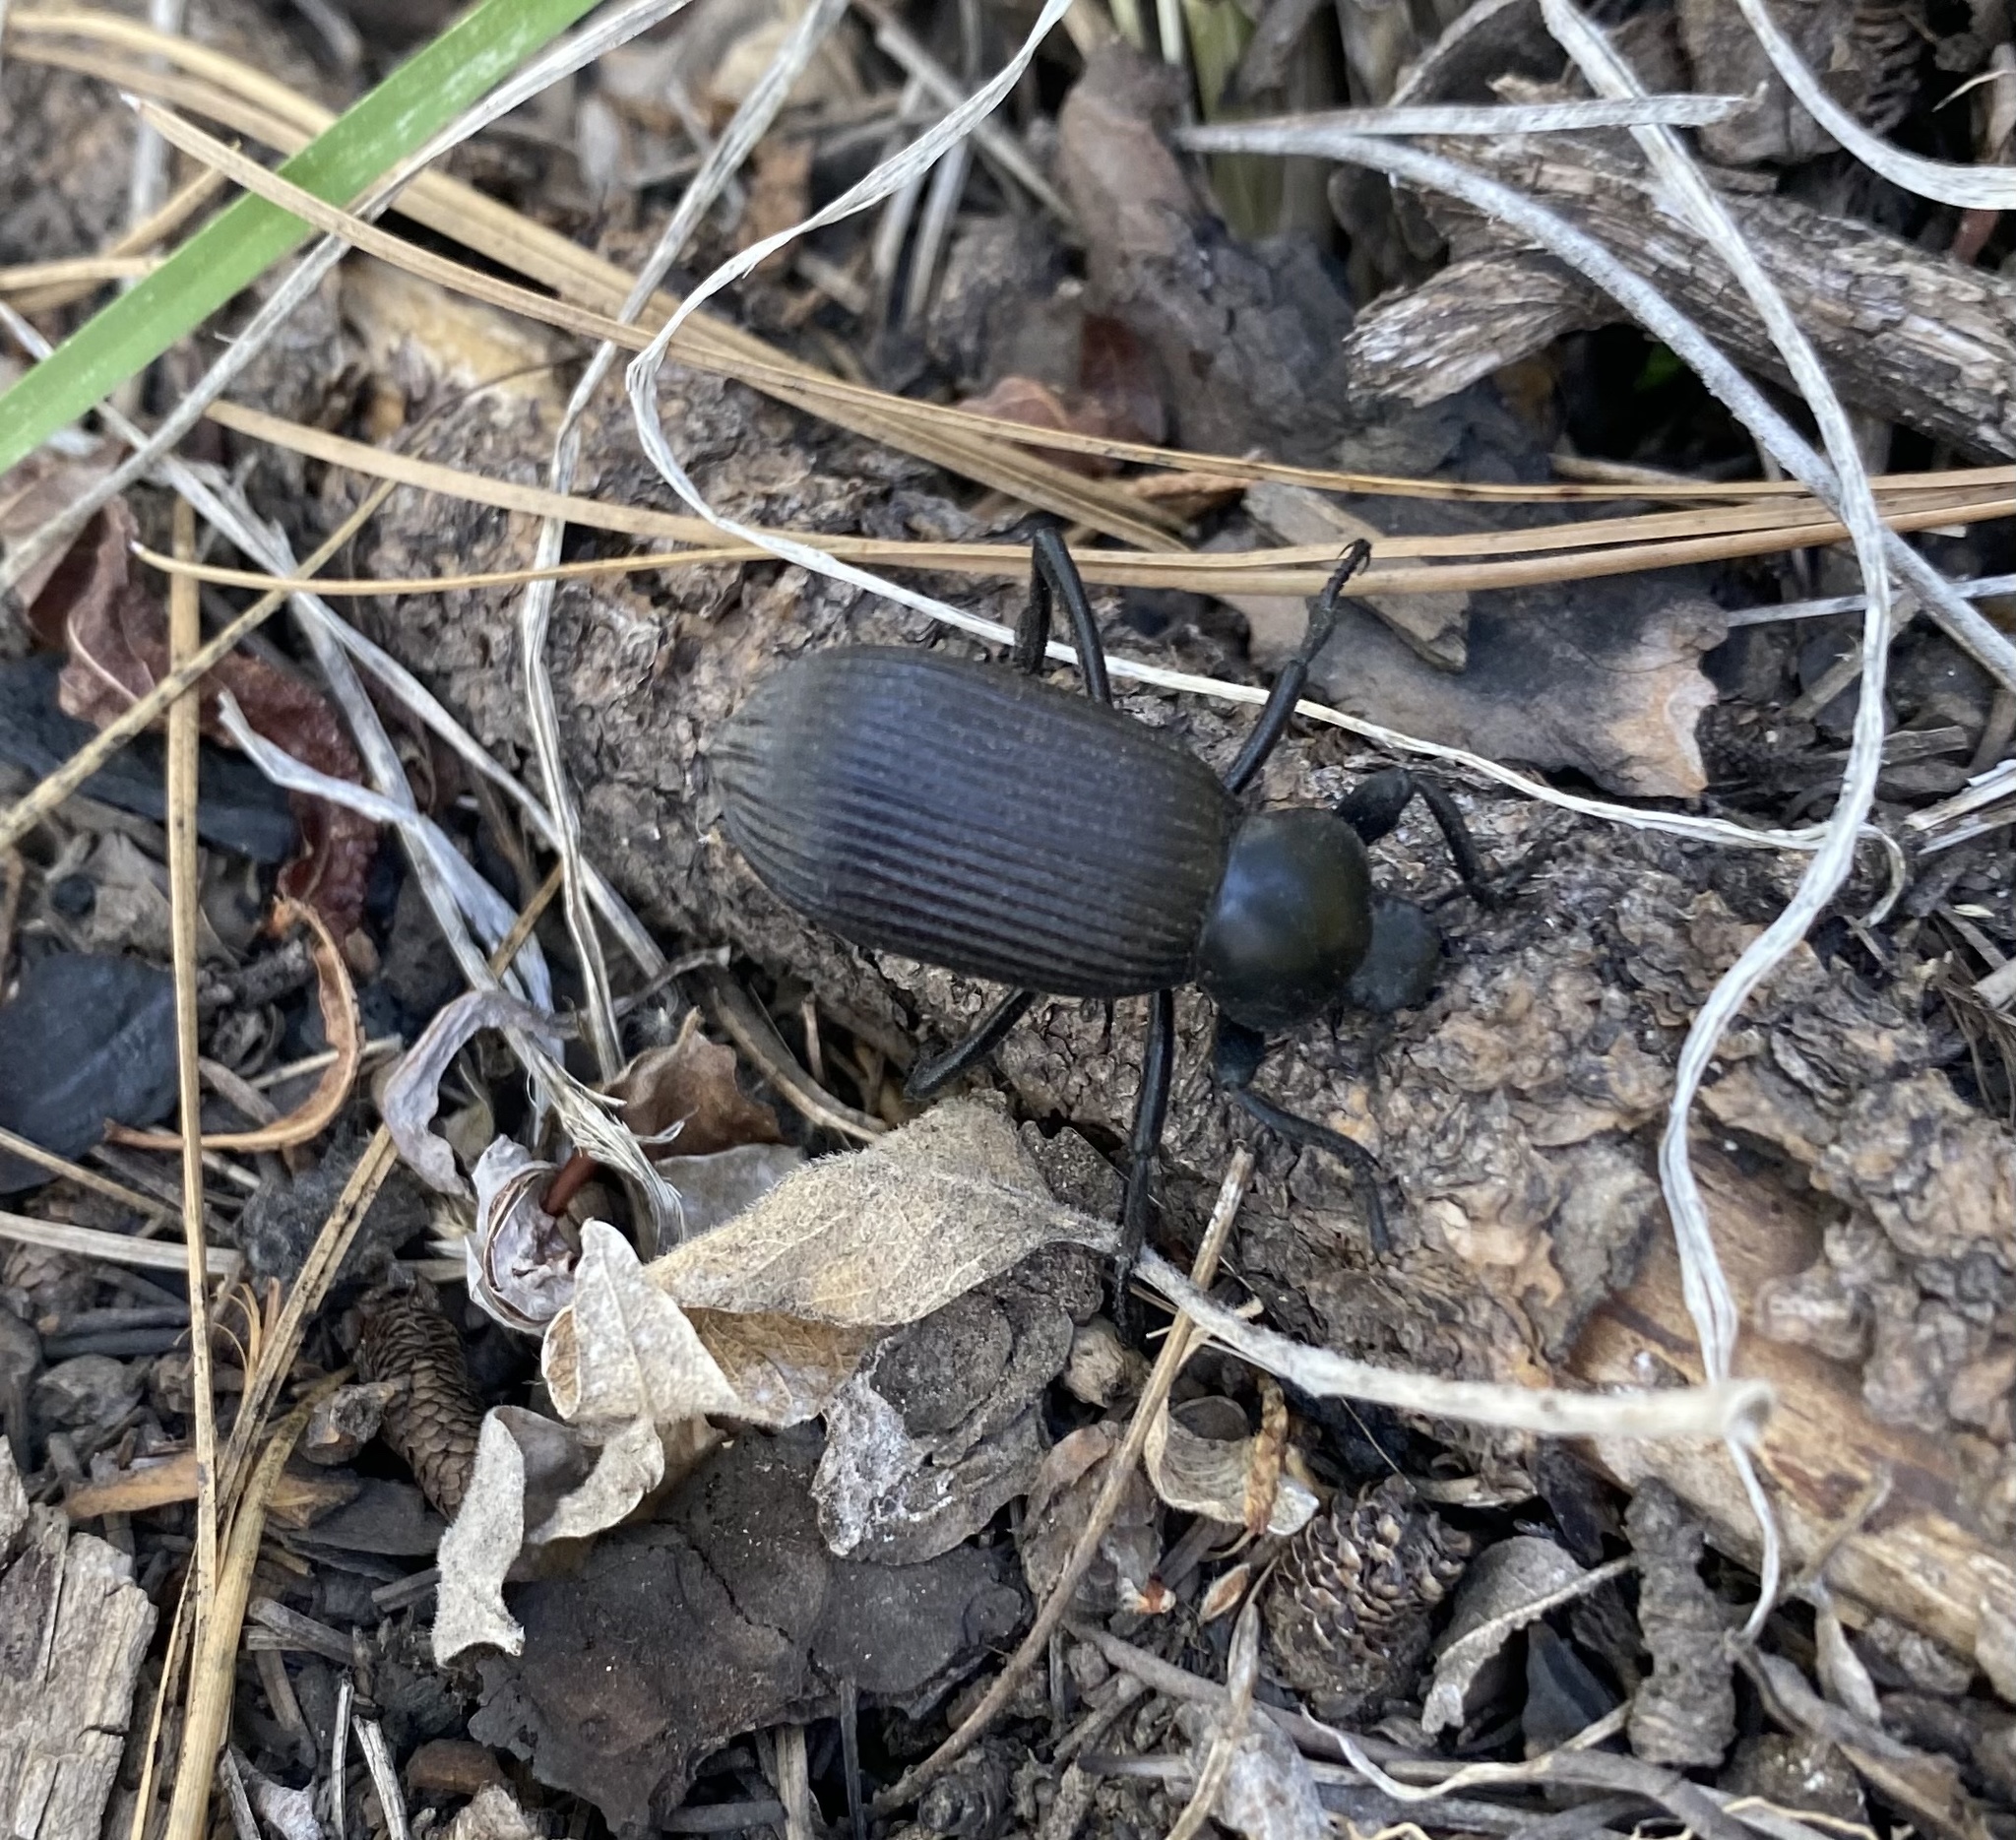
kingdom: Animalia
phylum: Arthropoda
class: Insecta
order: Coleoptera
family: Tenebrionidae
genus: Eleodes
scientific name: Eleodes obscura
